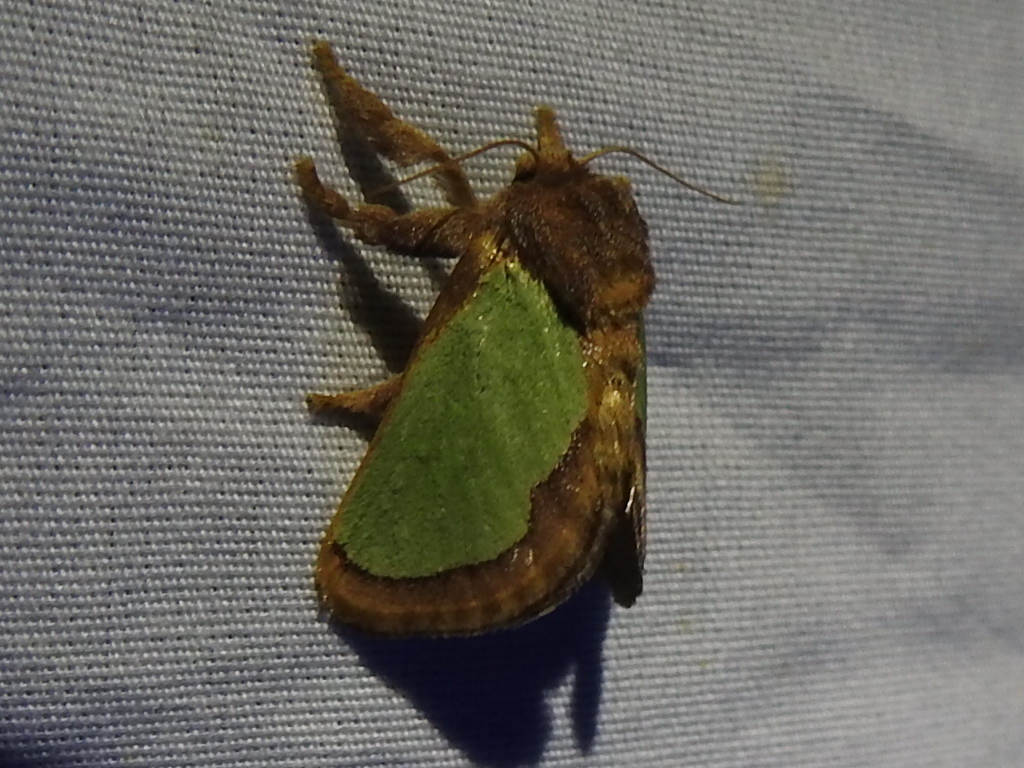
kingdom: Animalia
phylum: Arthropoda
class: Insecta
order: Lepidoptera
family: Limacodidae
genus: Euclea
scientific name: Euclea incisa
